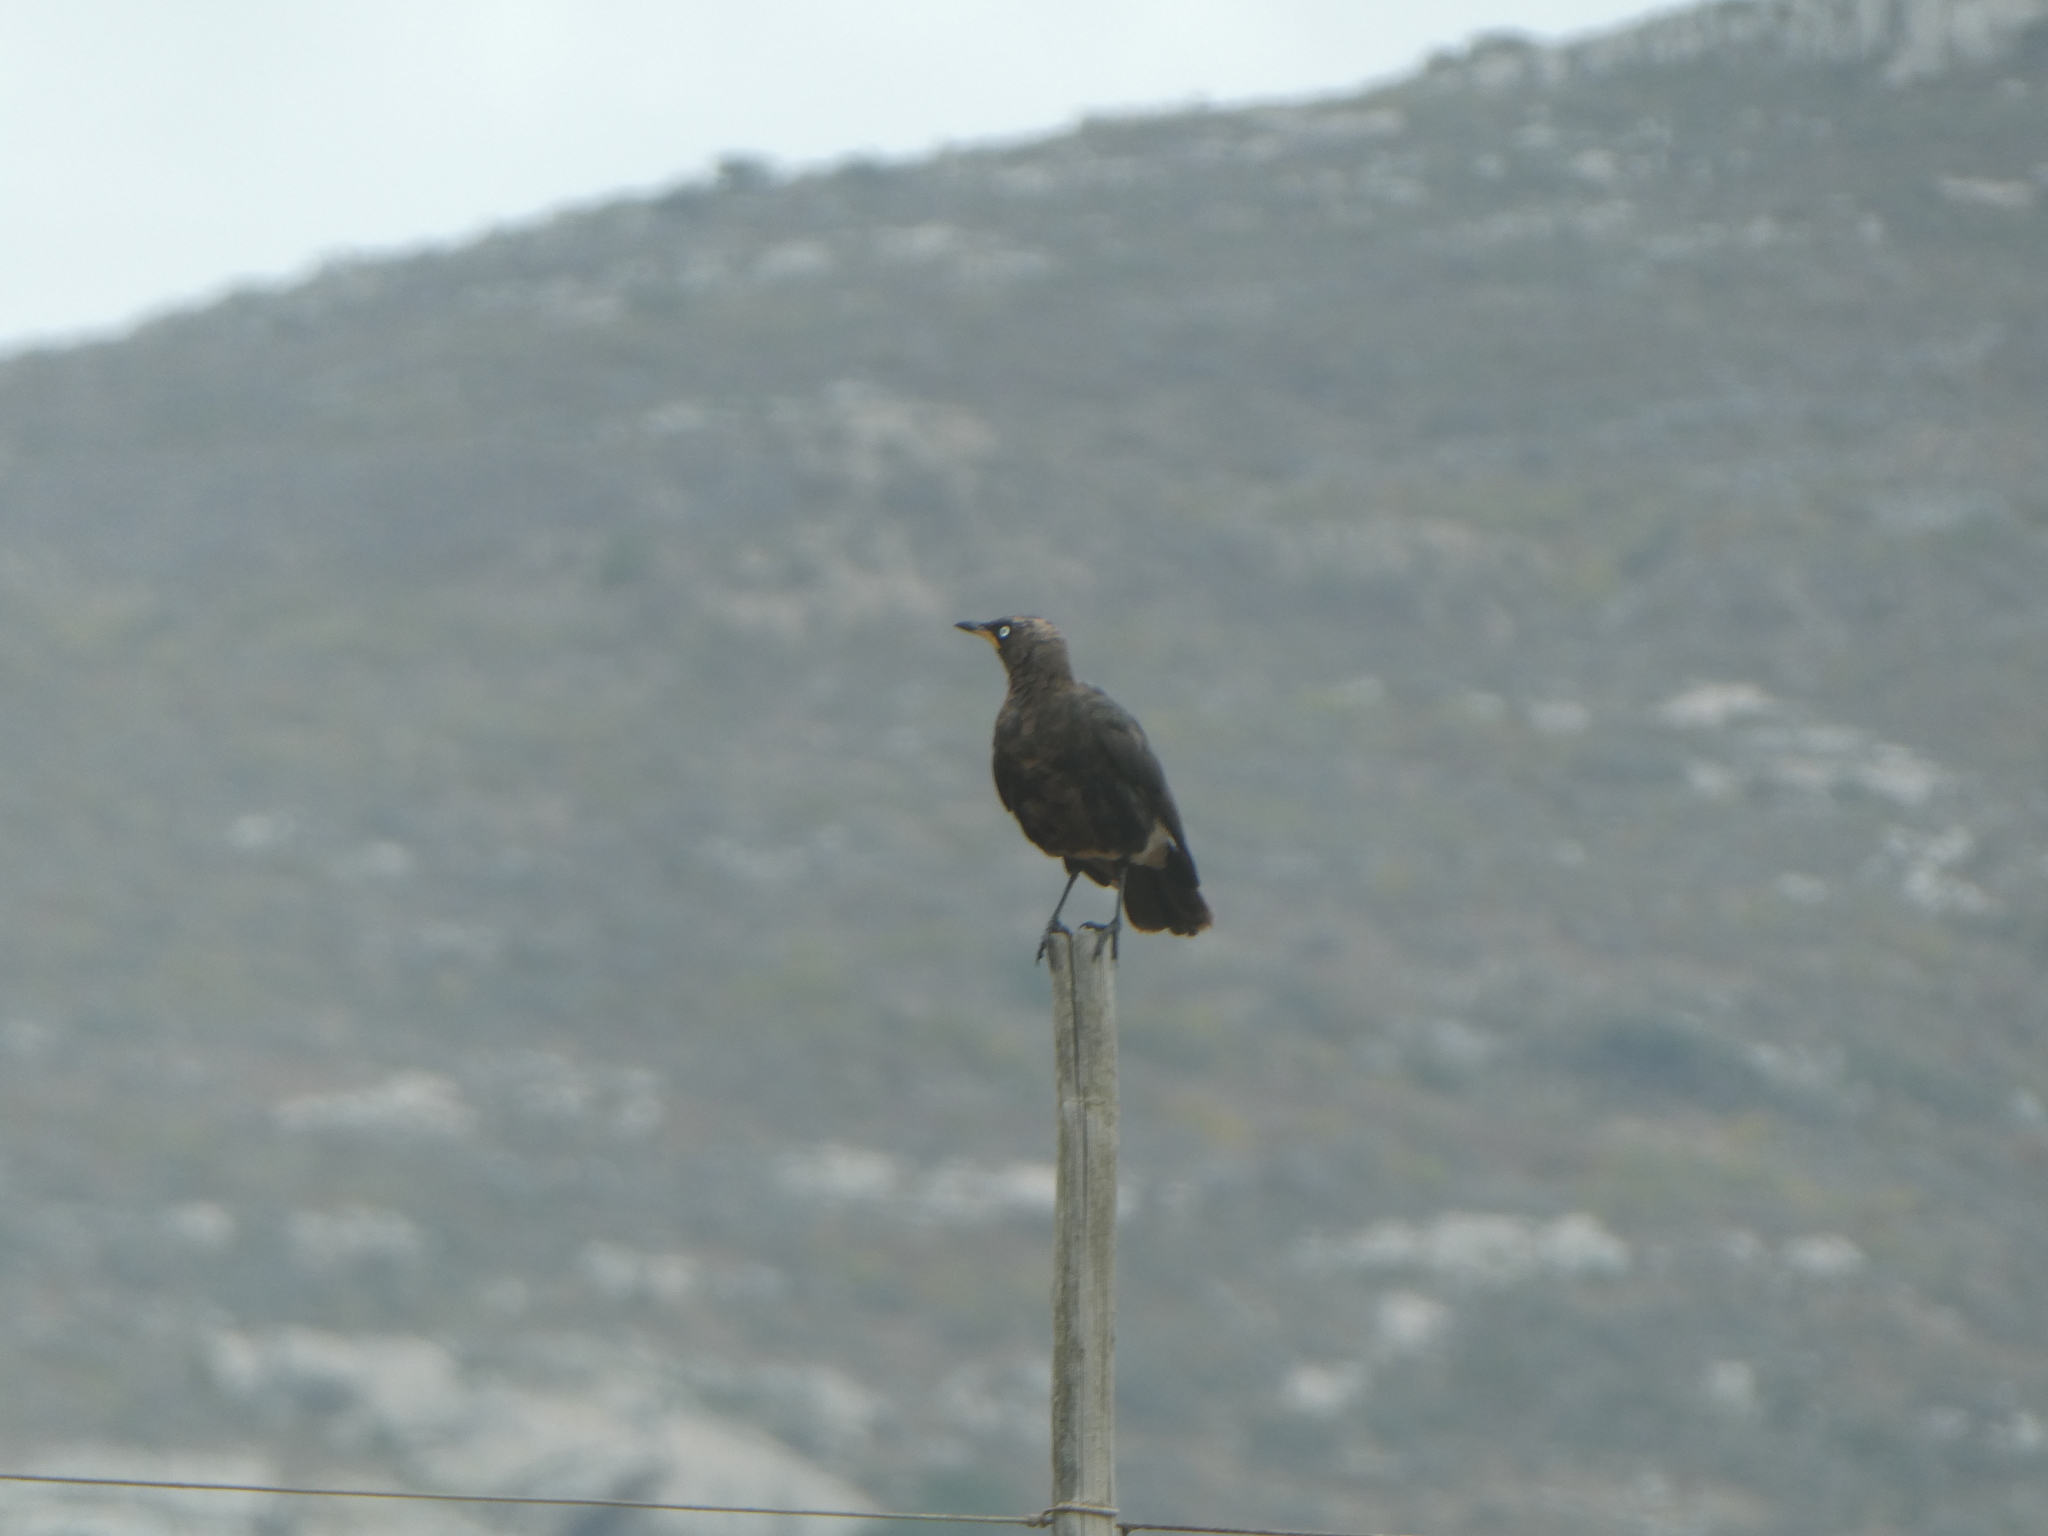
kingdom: Animalia
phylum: Chordata
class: Aves
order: Passeriformes
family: Sturnidae
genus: Lamprotornis
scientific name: Lamprotornis bicolor
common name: Pied starling
